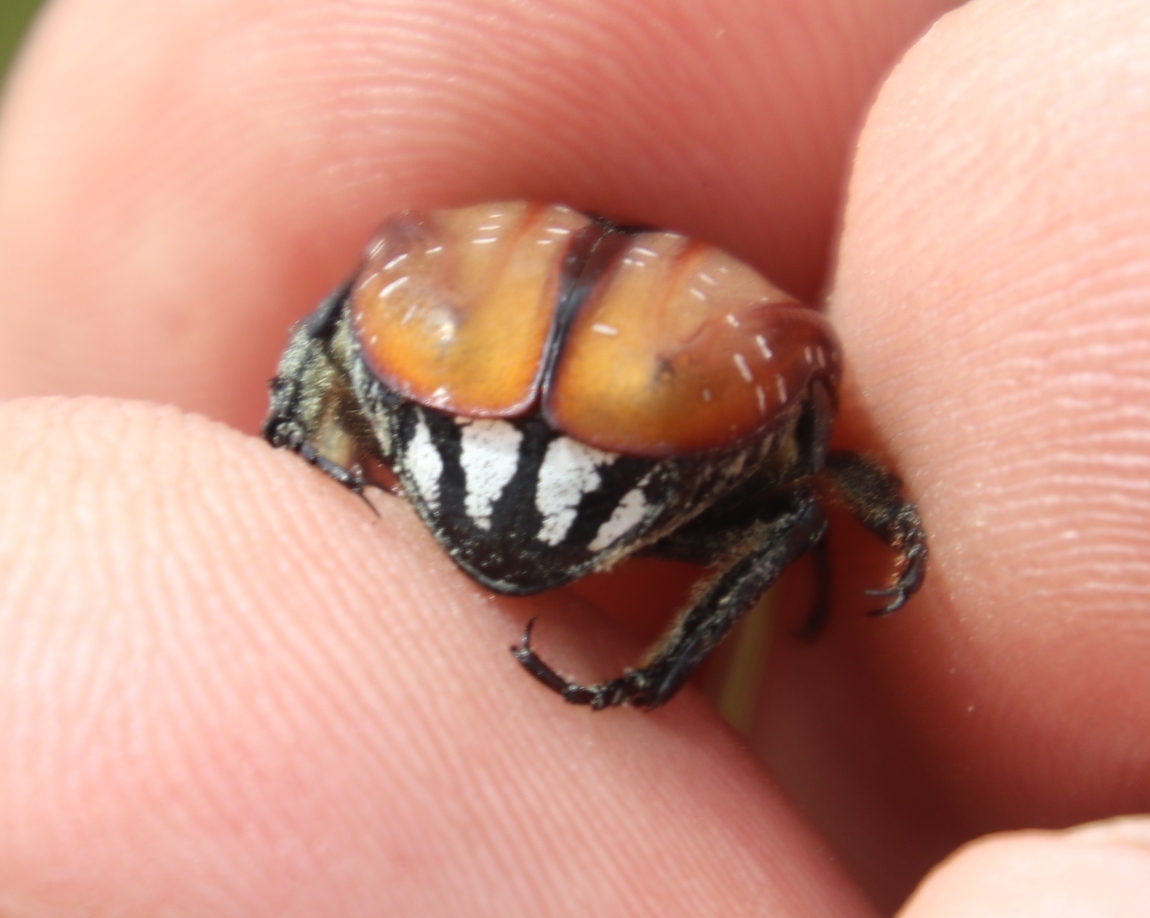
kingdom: Animalia
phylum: Arthropoda
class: Insecta
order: Coleoptera
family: Scarabaeidae
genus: Trichostetha
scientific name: Trichostetha capensis
